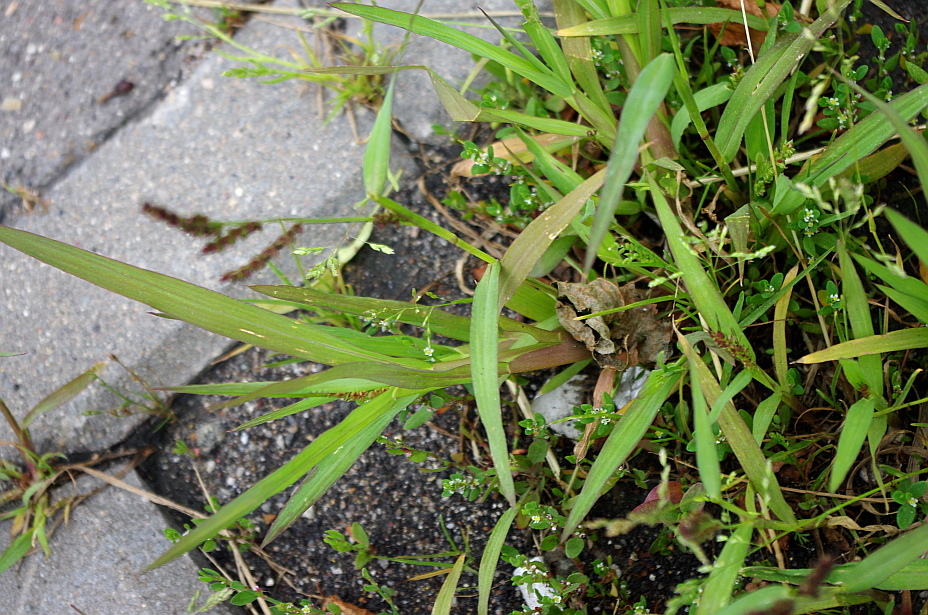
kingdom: Plantae
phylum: Tracheophyta
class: Liliopsida
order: Poales
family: Poaceae
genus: Echinochloa
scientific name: Echinochloa crus-galli
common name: Cockspur
